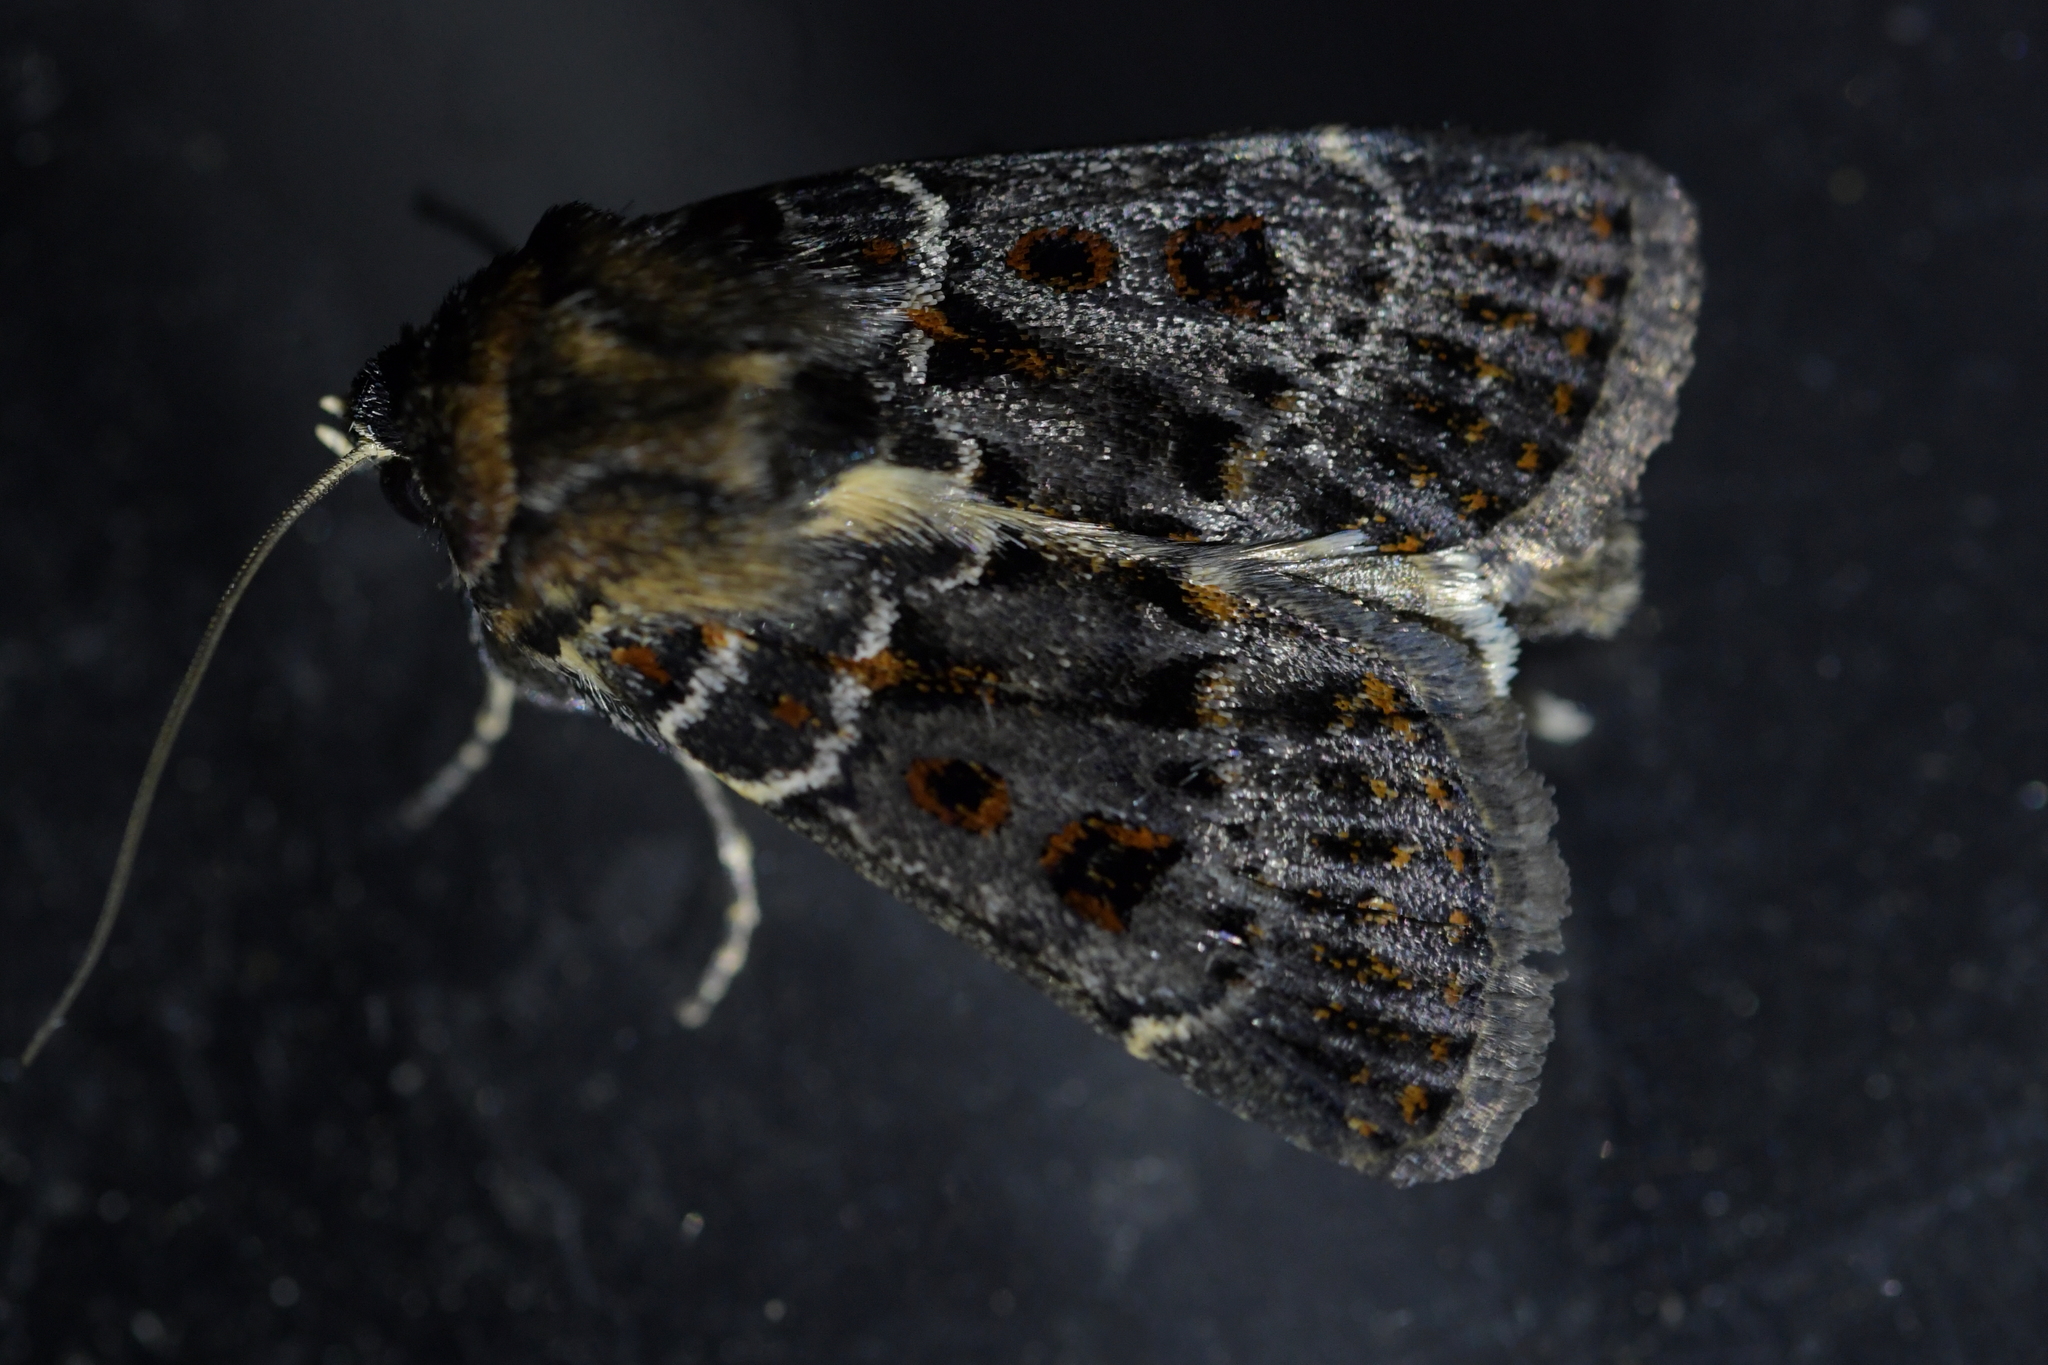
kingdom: Animalia
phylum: Arthropoda
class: Insecta
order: Lepidoptera
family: Noctuidae
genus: Proteuxoa
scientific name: Proteuxoa sanguinipuncta
